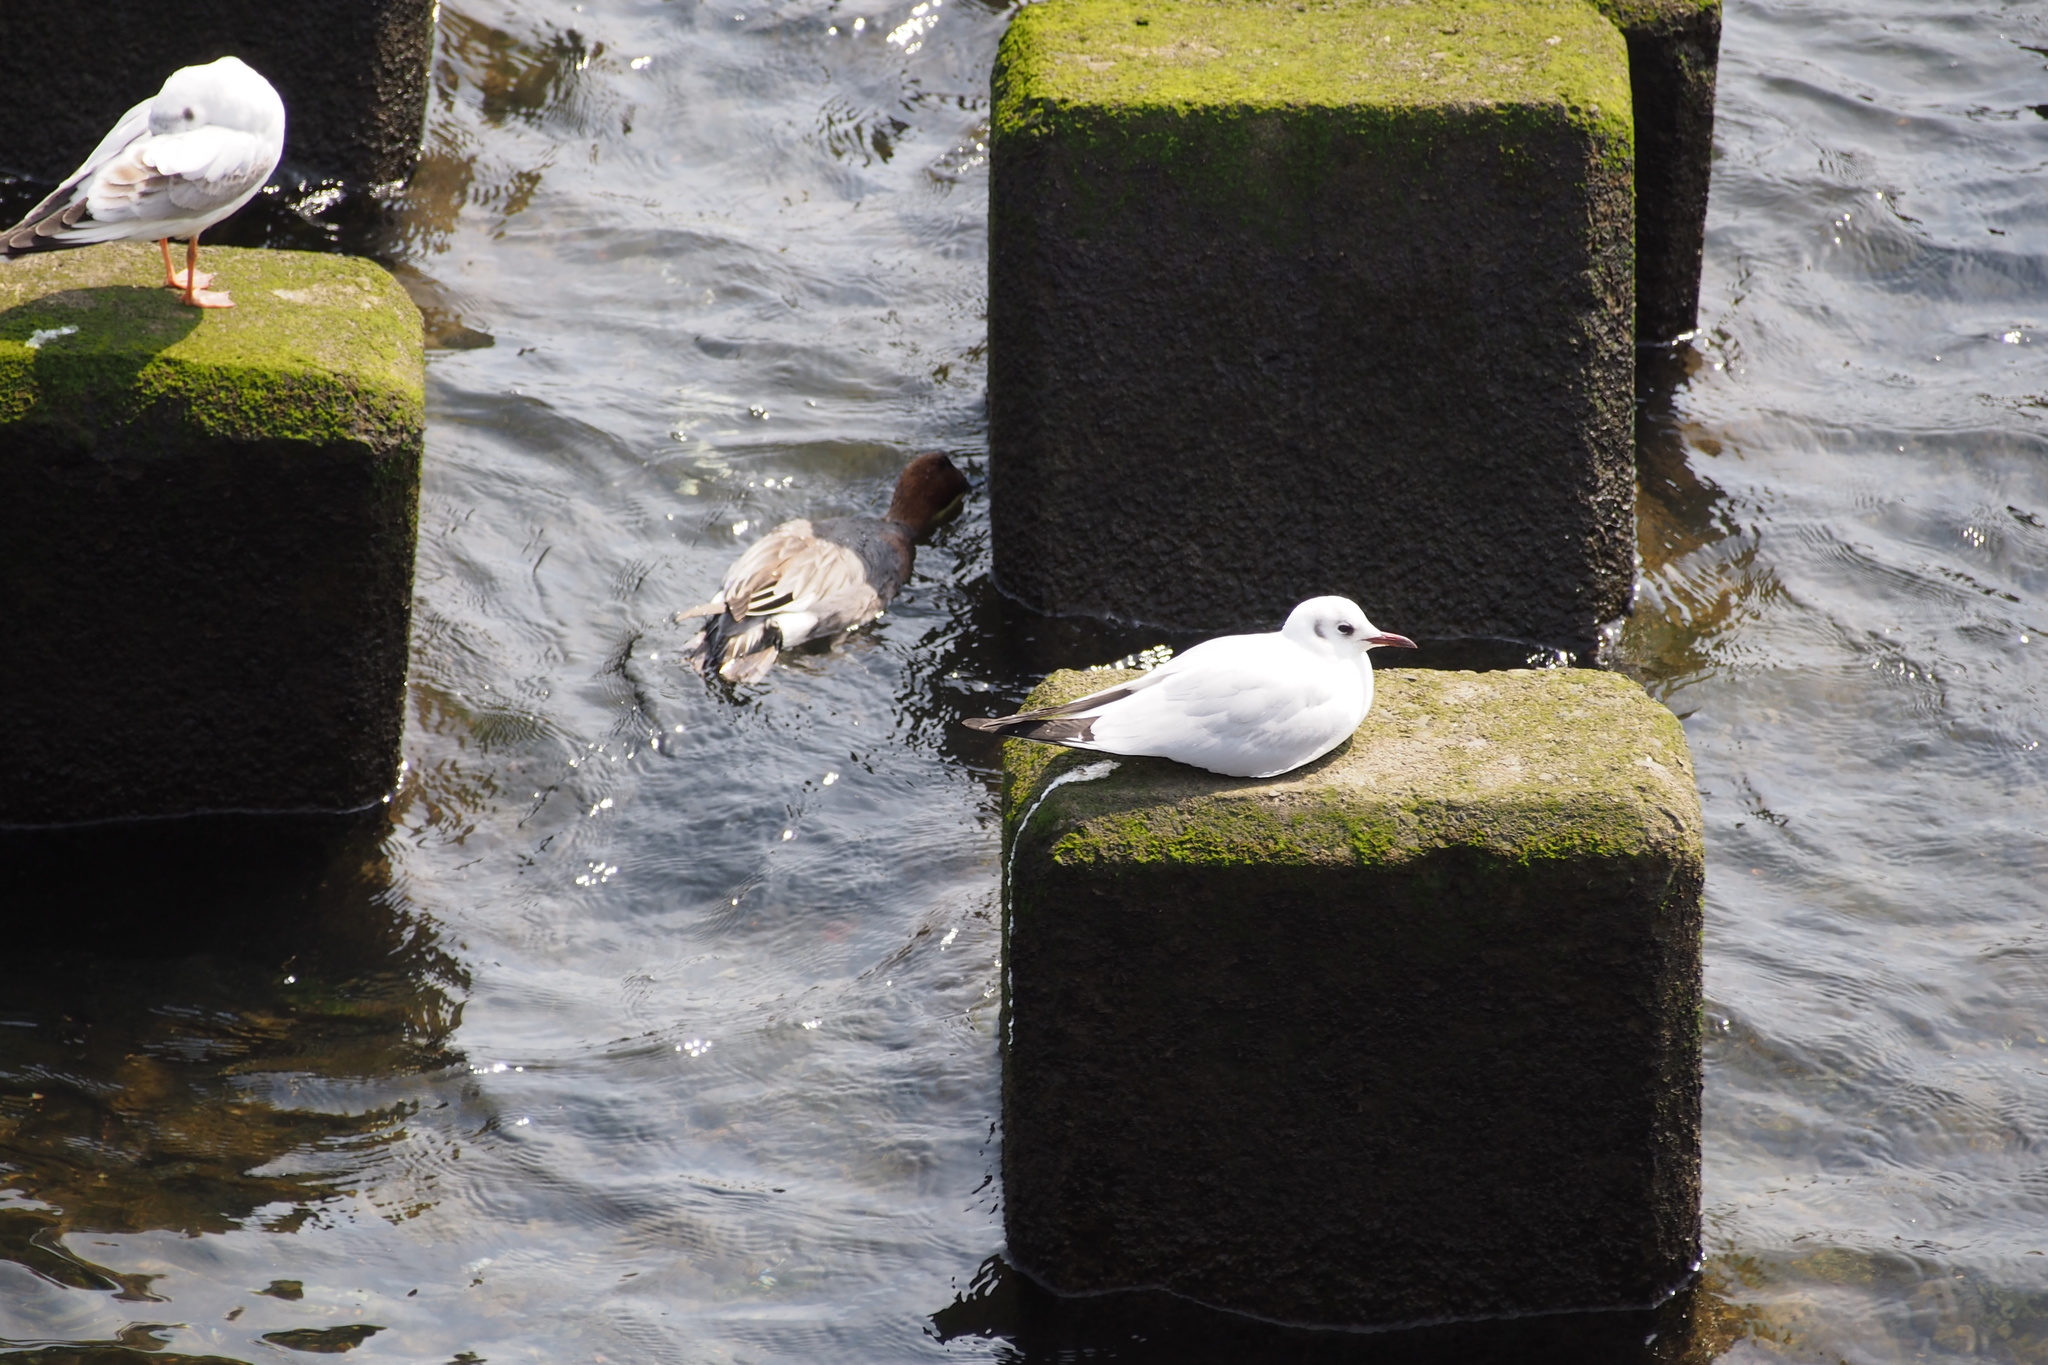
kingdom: Animalia
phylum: Chordata
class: Aves
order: Charadriiformes
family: Laridae
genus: Chroicocephalus
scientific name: Chroicocephalus ridibundus
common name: Black-headed gull
